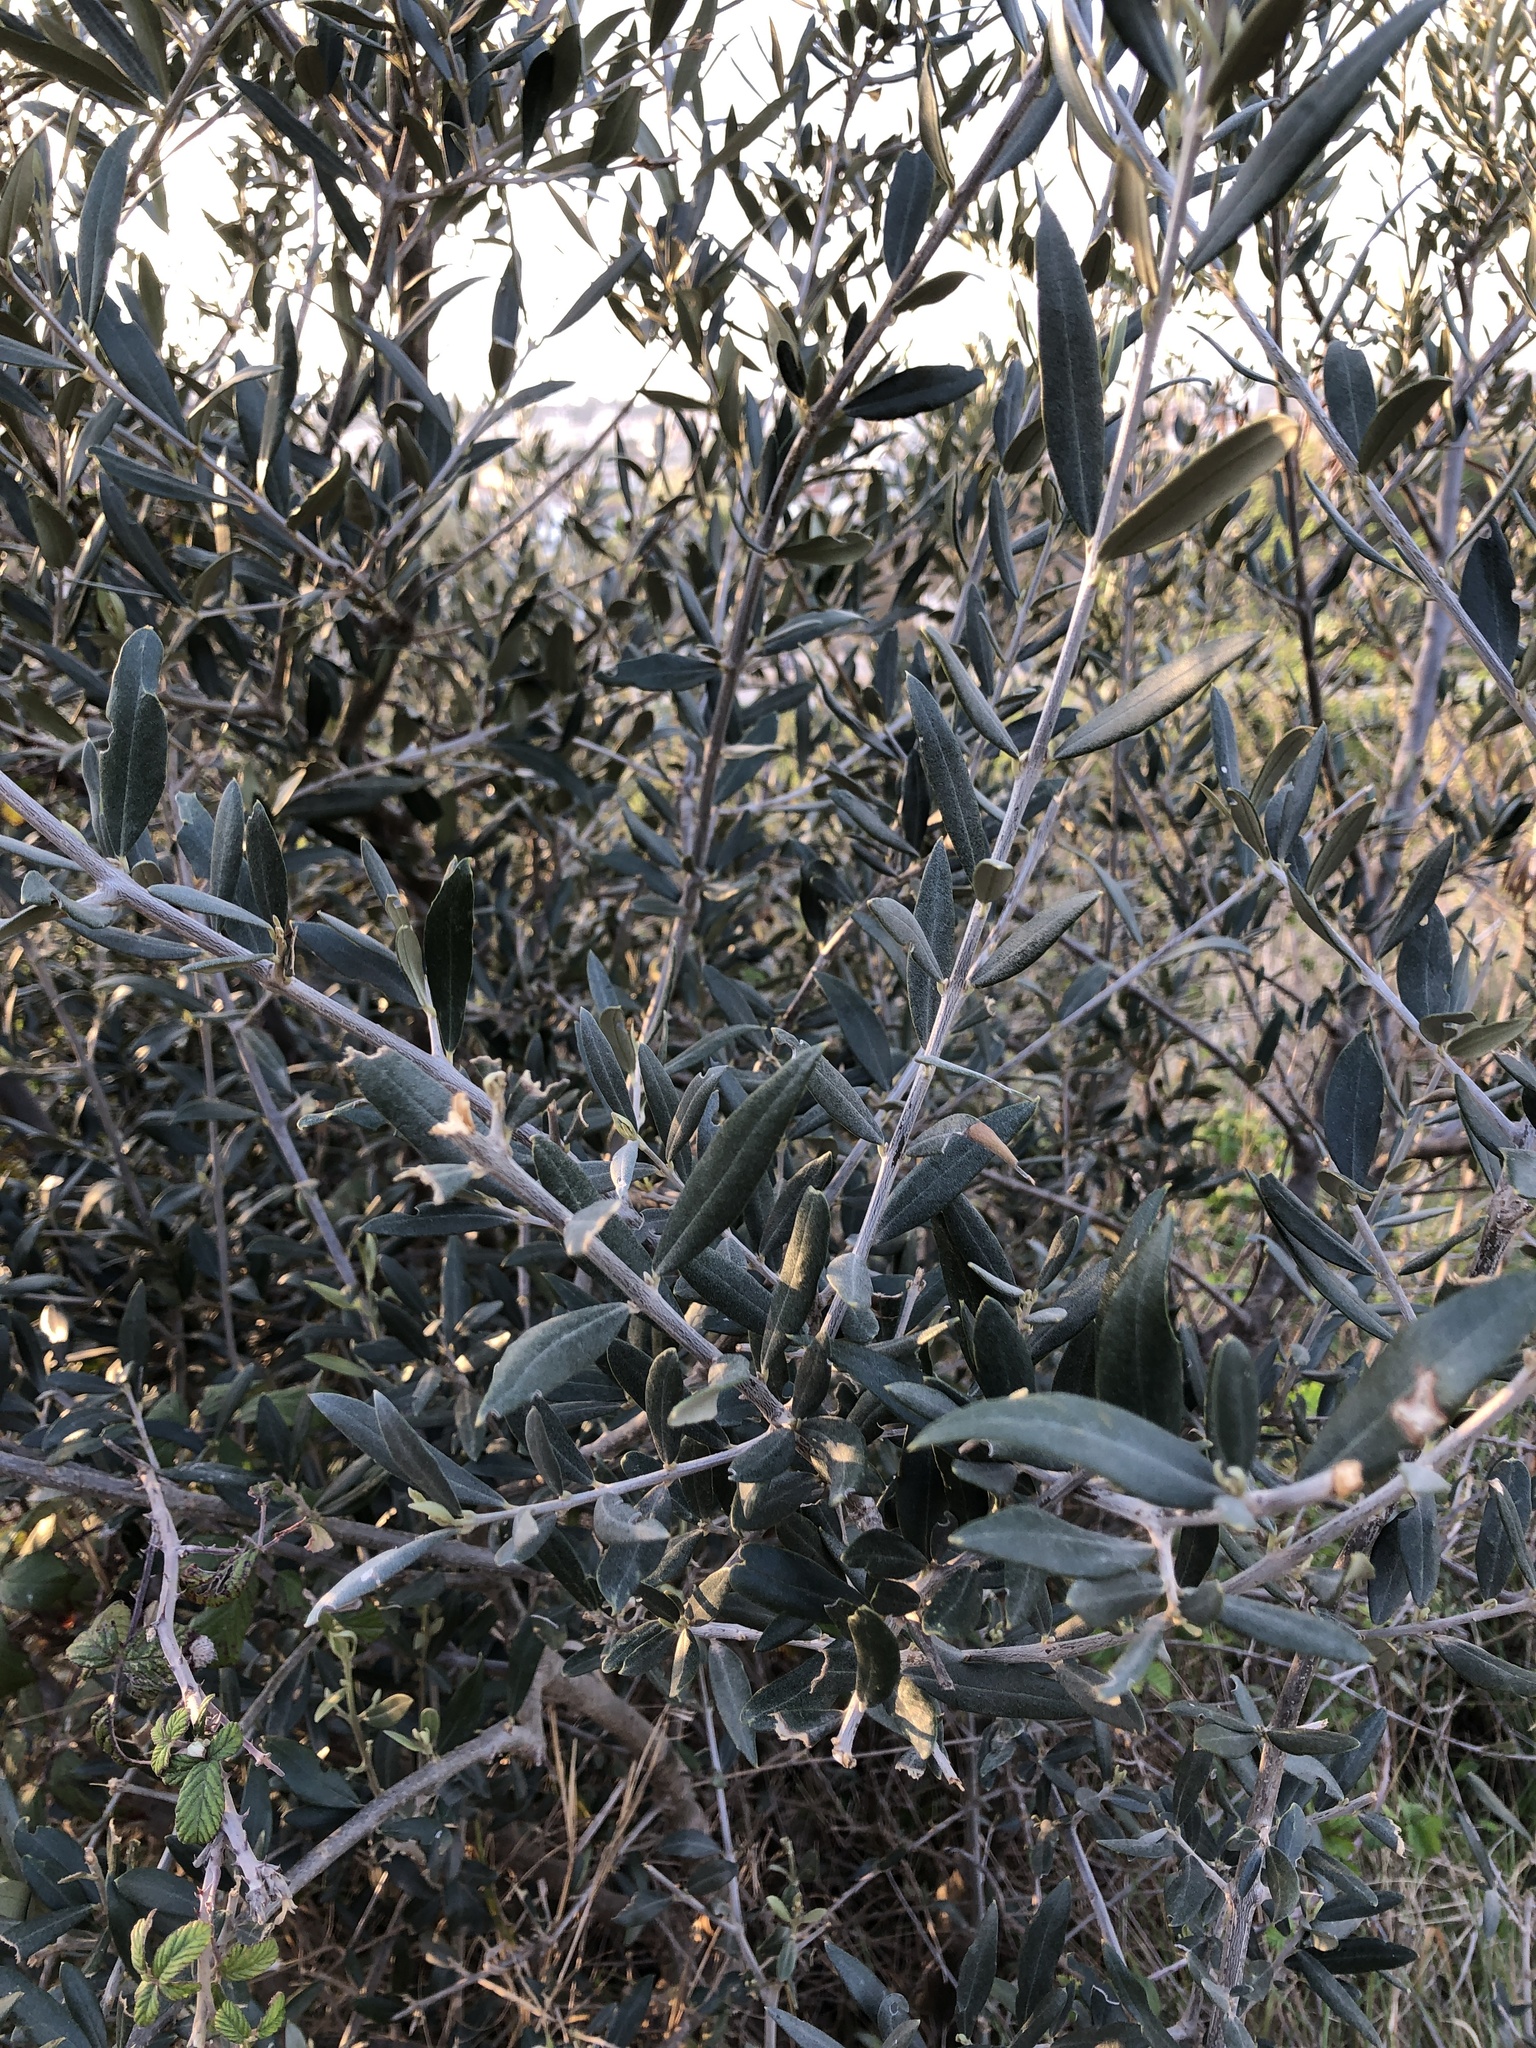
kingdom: Plantae
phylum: Tracheophyta
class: Magnoliopsida
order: Lamiales
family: Oleaceae
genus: Olea
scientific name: Olea europaea
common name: Olive
